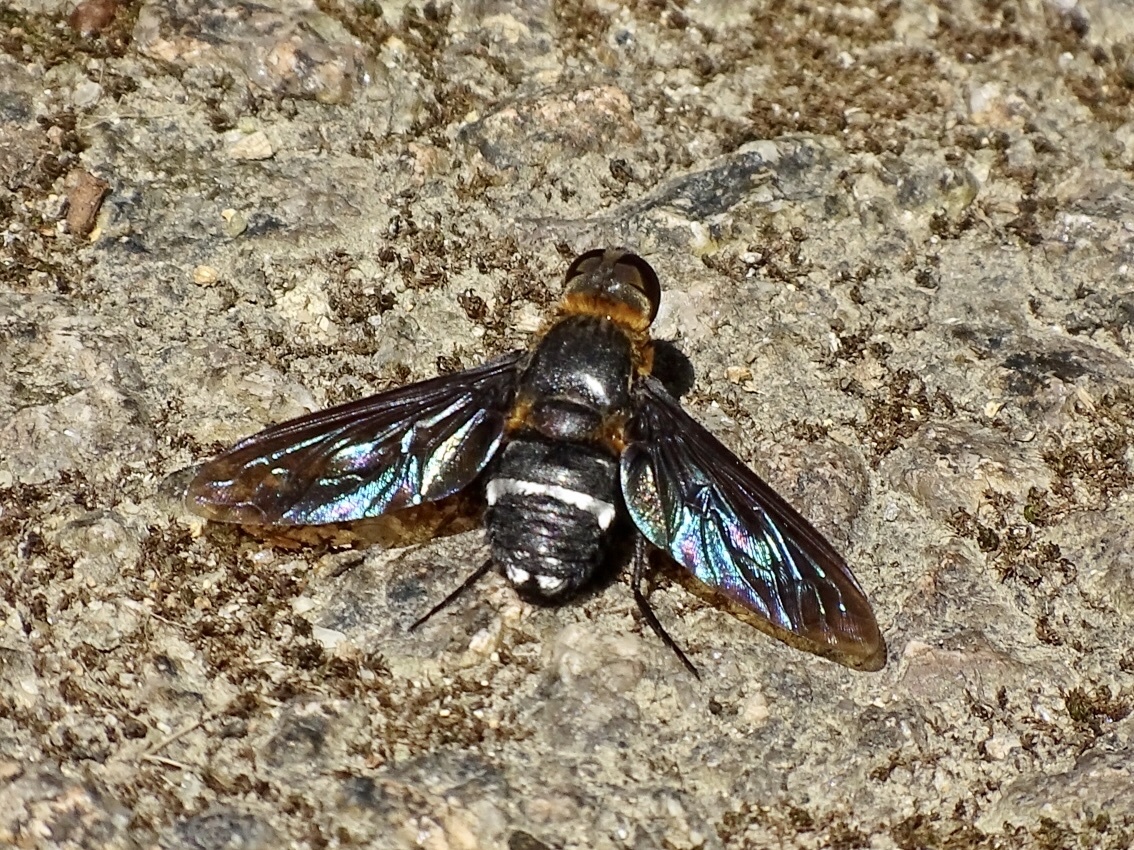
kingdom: Animalia
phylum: Arthropoda
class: Insecta
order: Diptera
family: Bombyliidae
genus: Ligyra
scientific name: Ligyra tantalus
